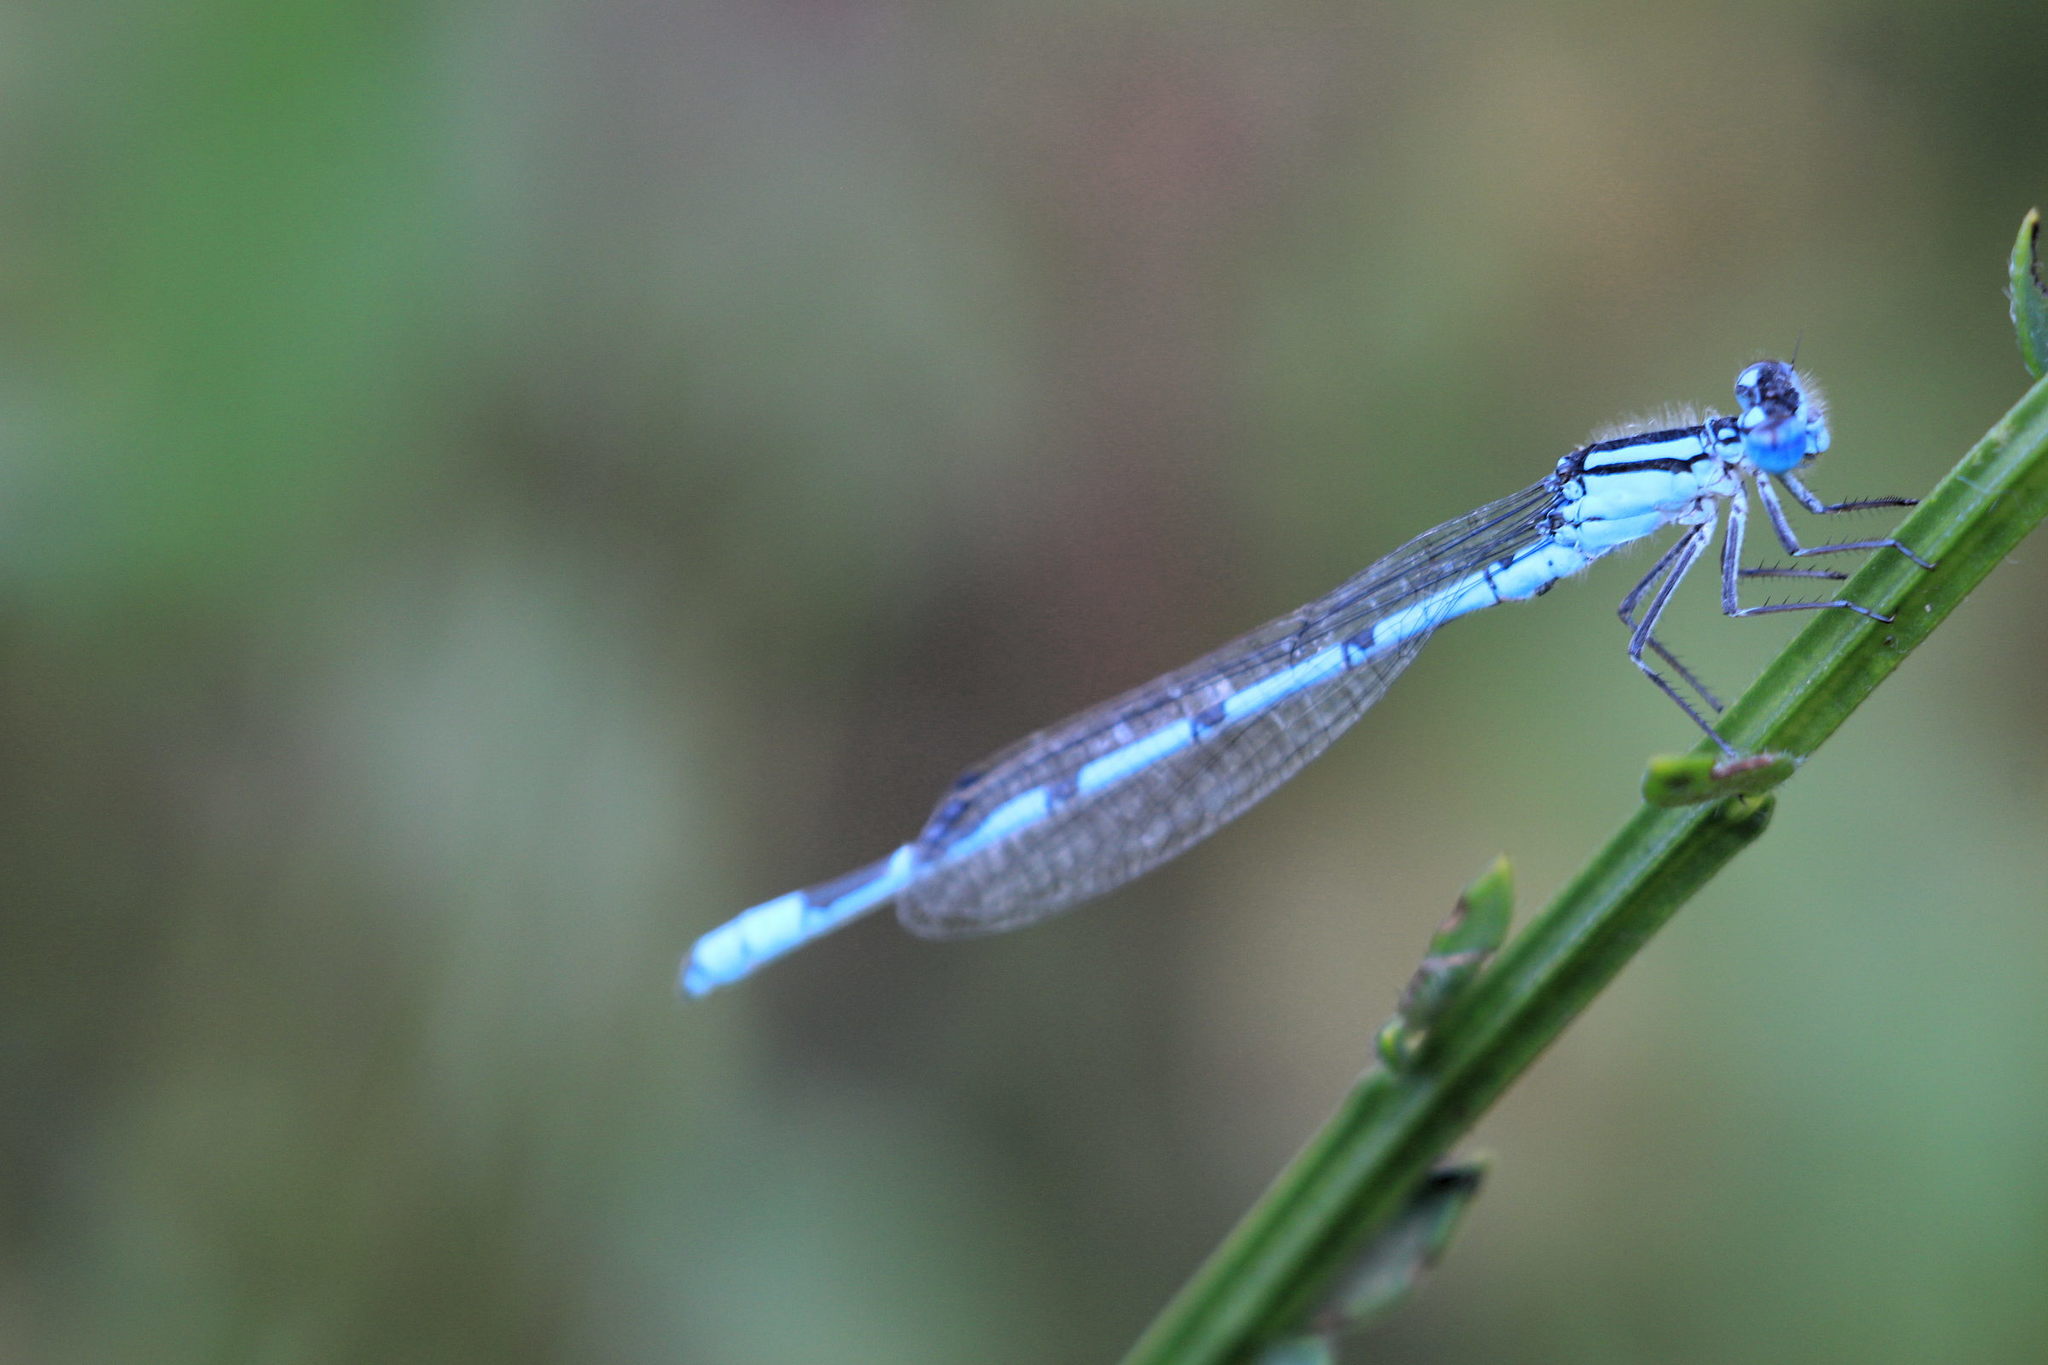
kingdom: Animalia
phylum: Arthropoda
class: Insecta
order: Odonata
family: Coenagrionidae
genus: Enallagma
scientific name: Enallagma cyathigerum
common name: Common blue damselfly
